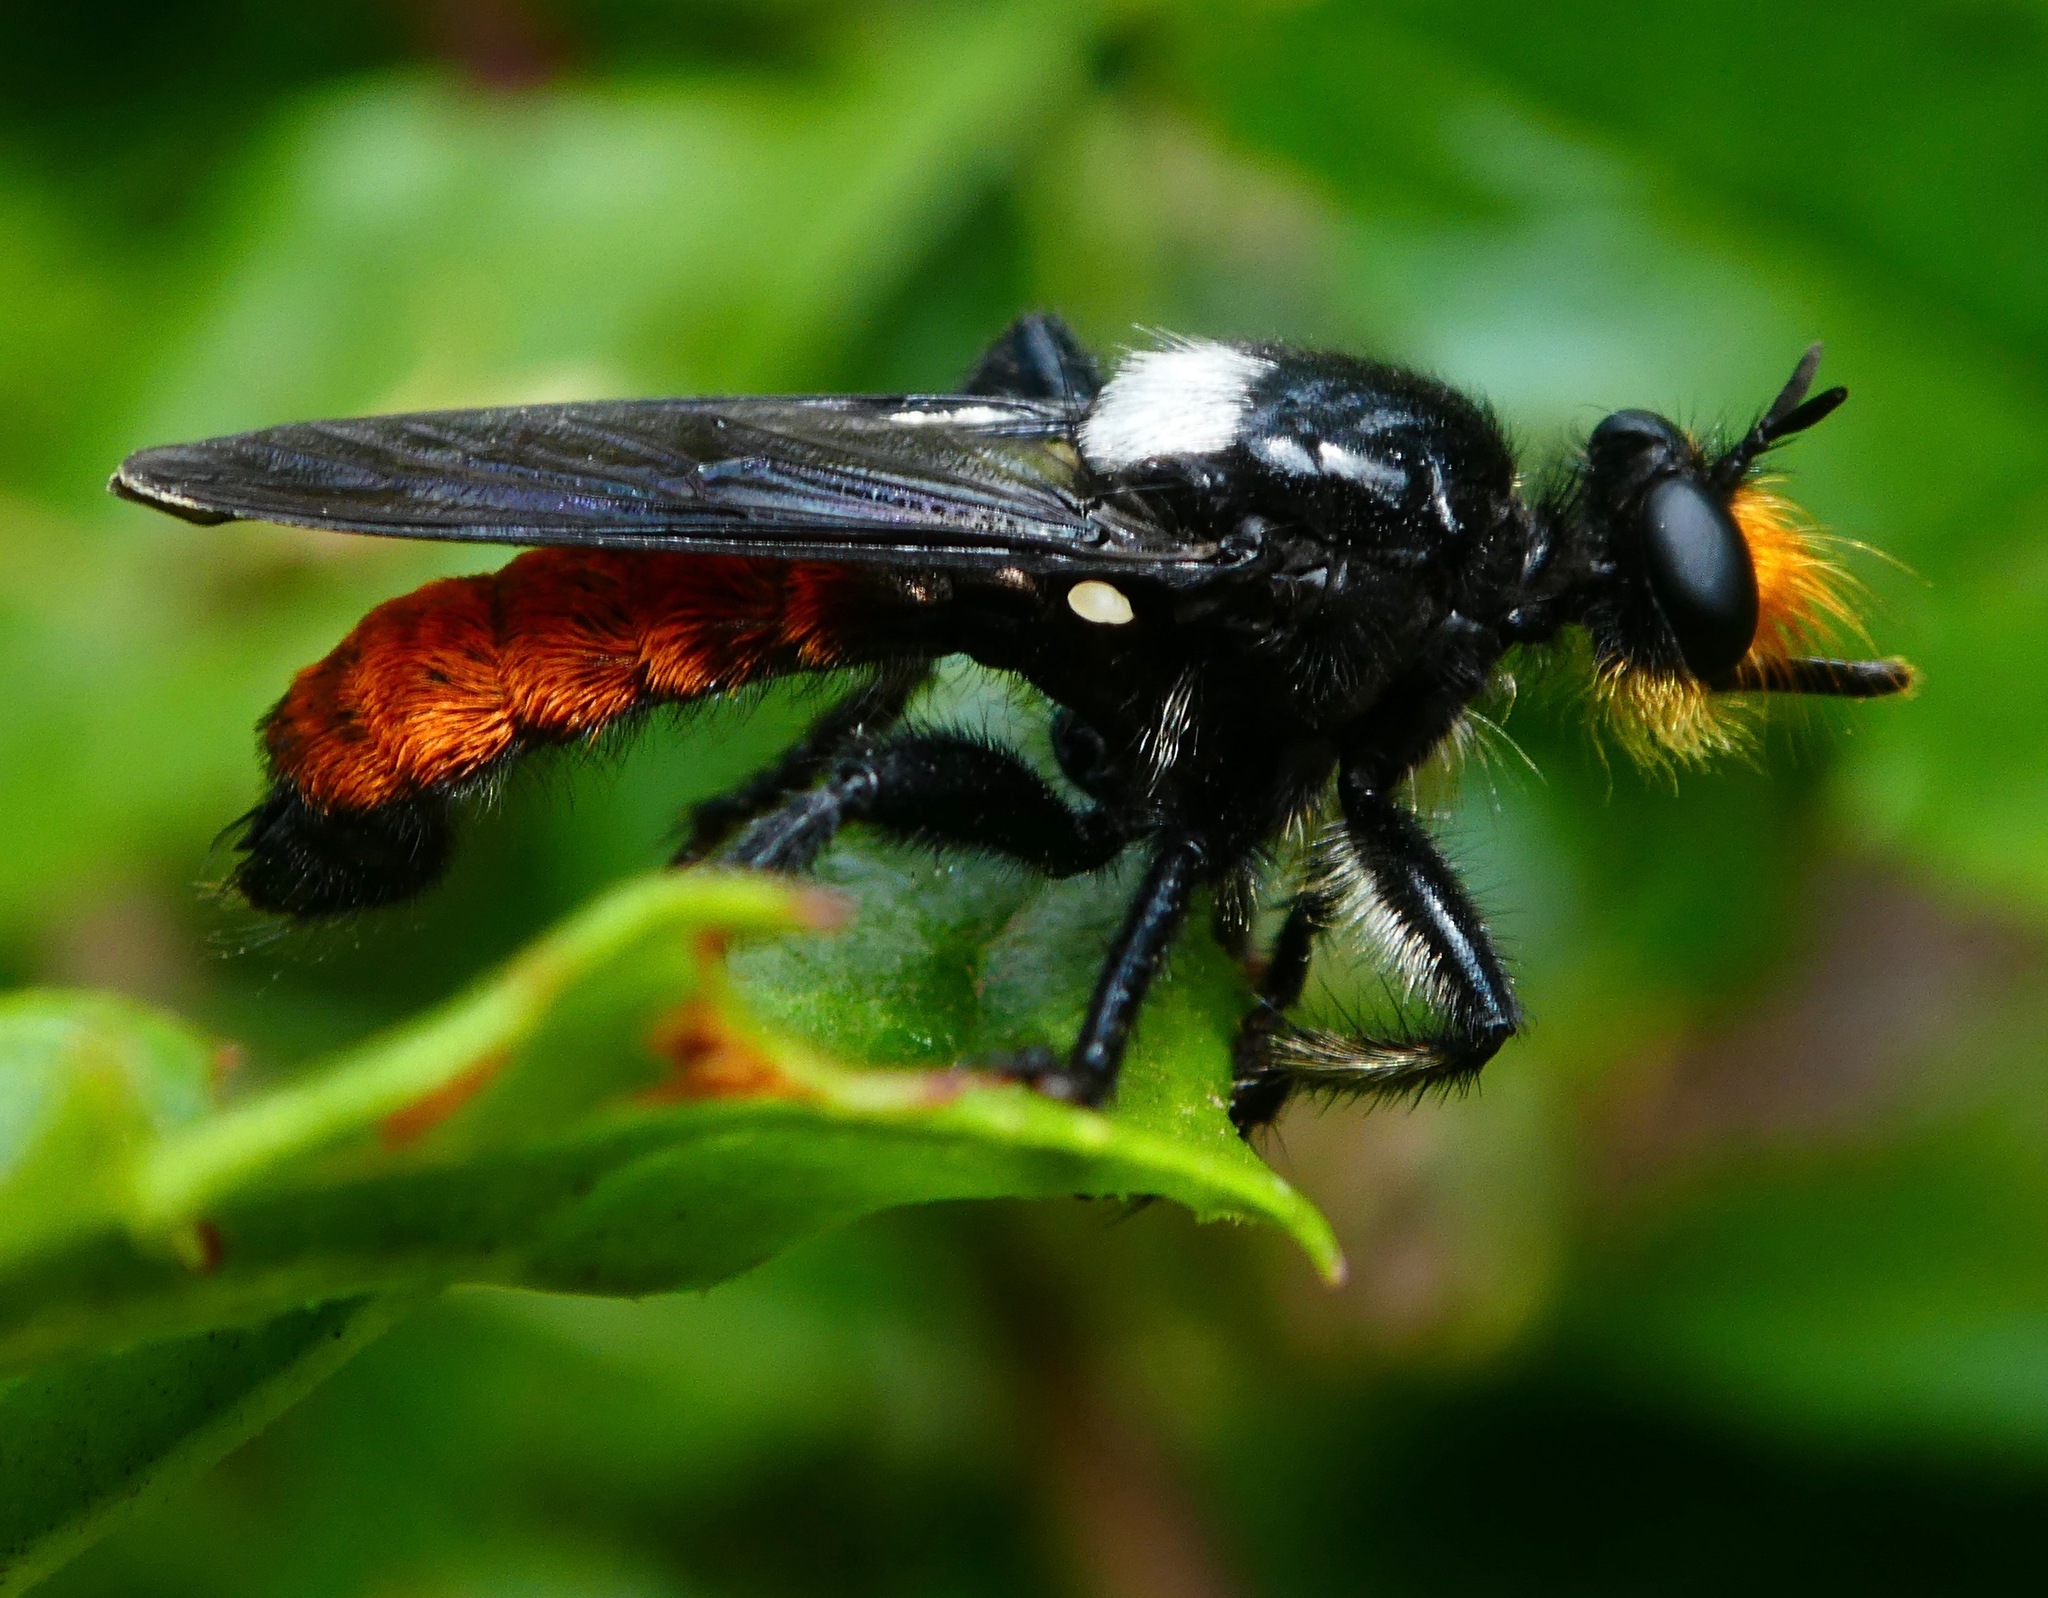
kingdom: Animalia
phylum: Arthropoda
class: Insecta
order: Diptera
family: Asilidae
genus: Laphria
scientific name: Laphria trux
